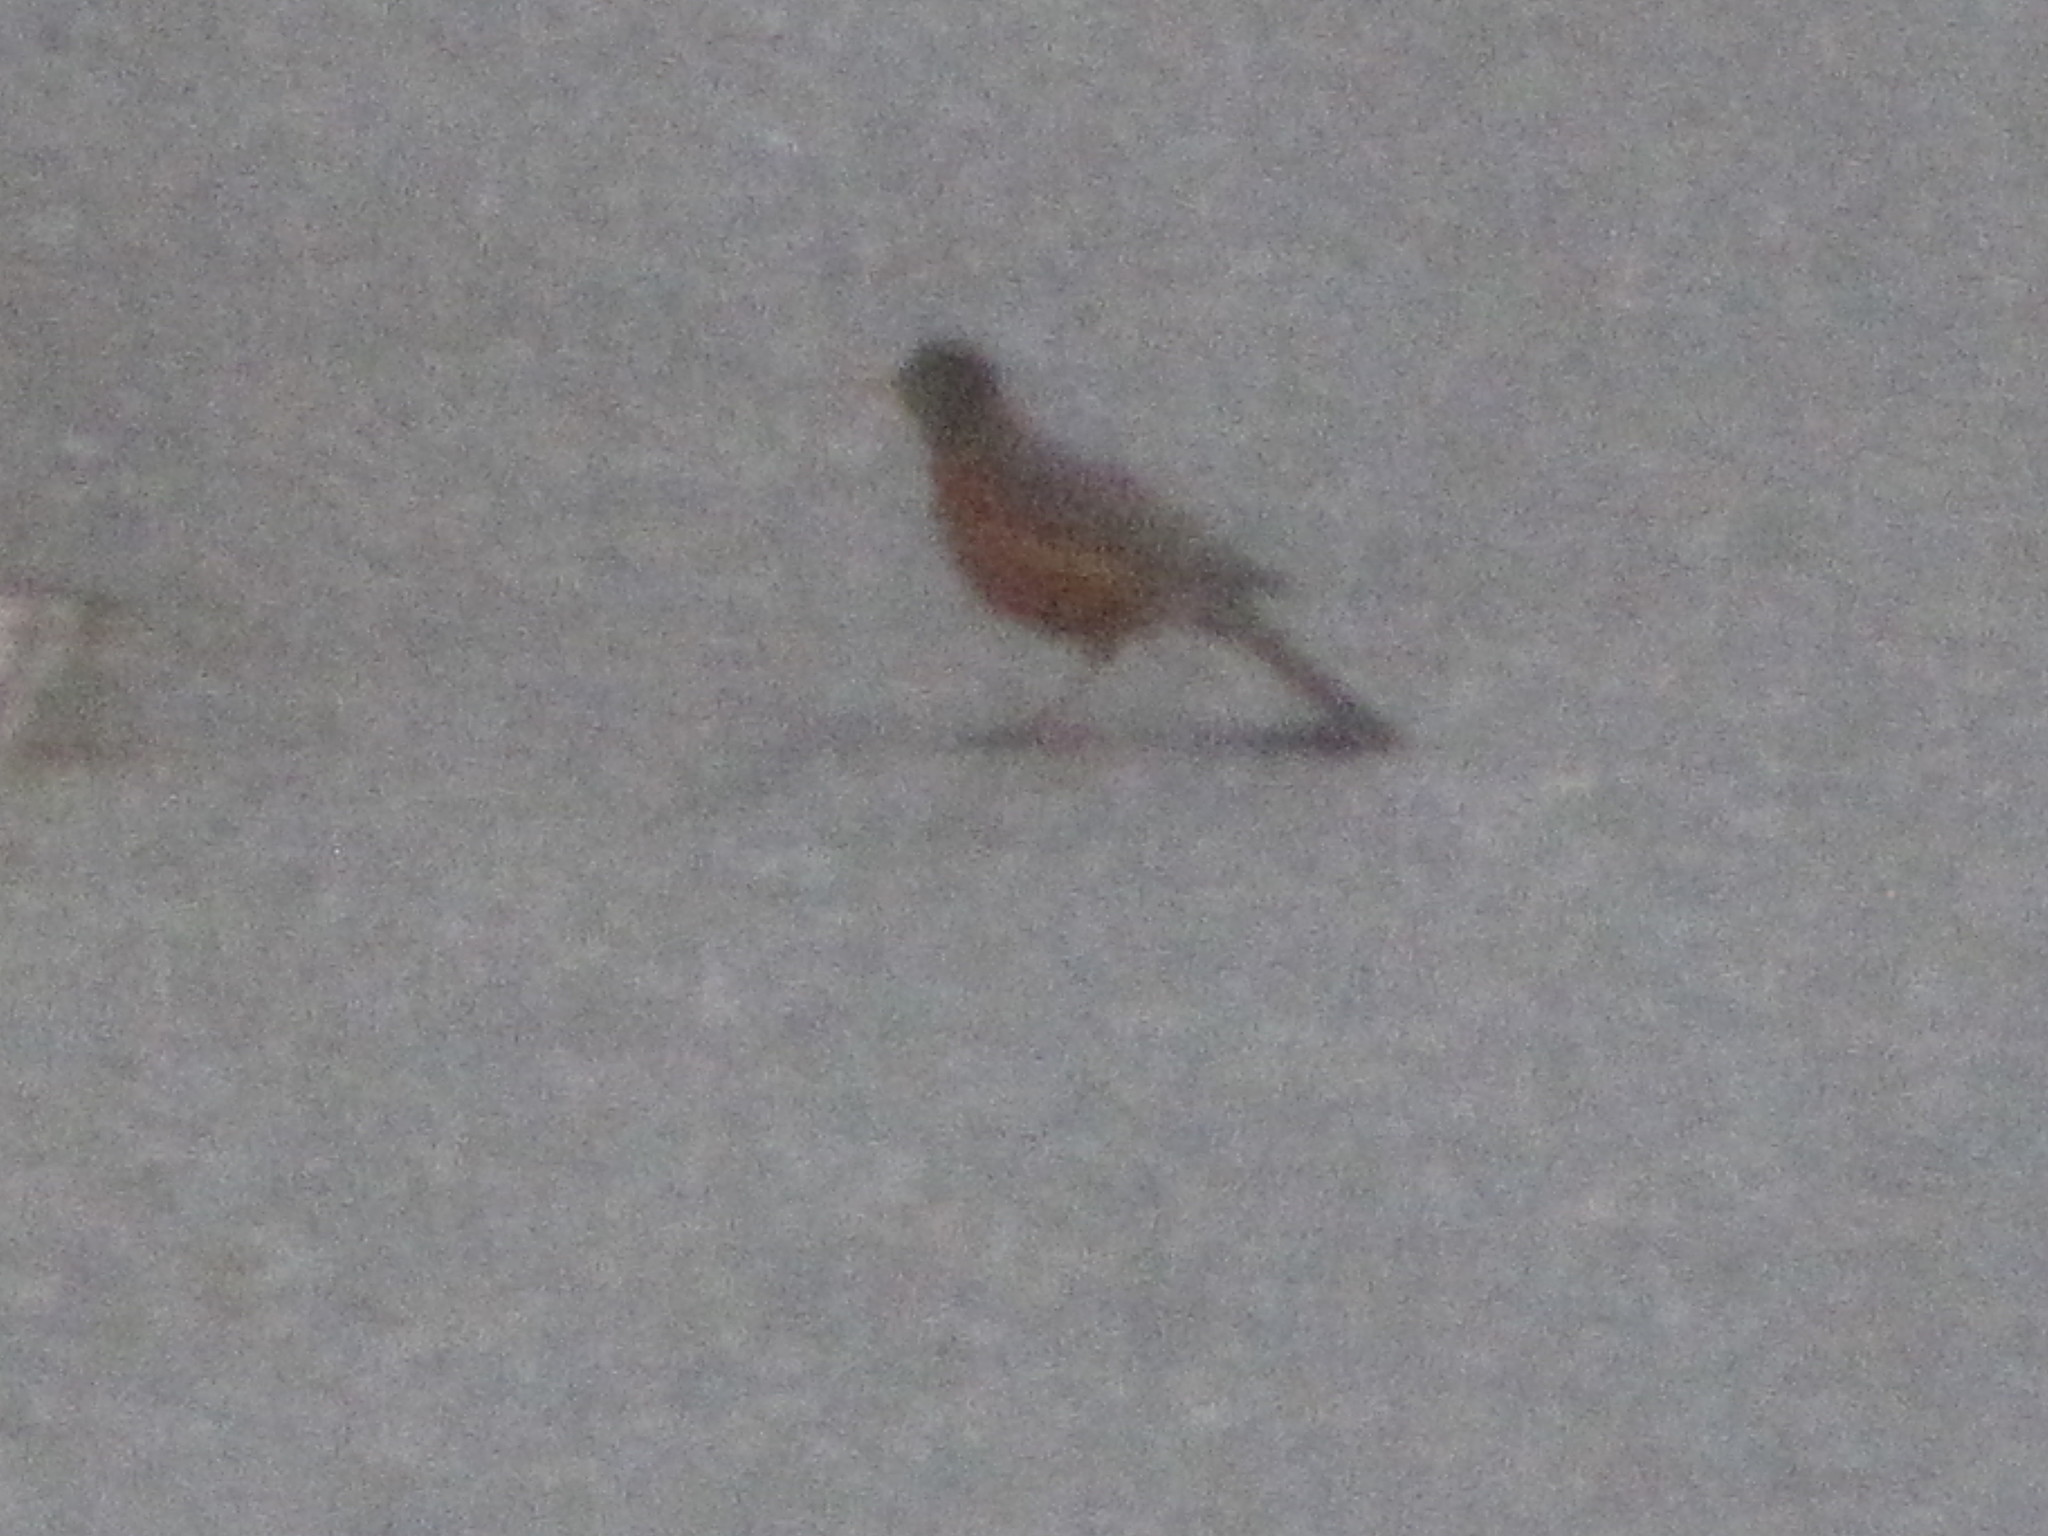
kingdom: Animalia
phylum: Chordata
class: Aves
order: Passeriformes
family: Turdidae
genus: Turdus
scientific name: Turdus migratorius
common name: American robin
